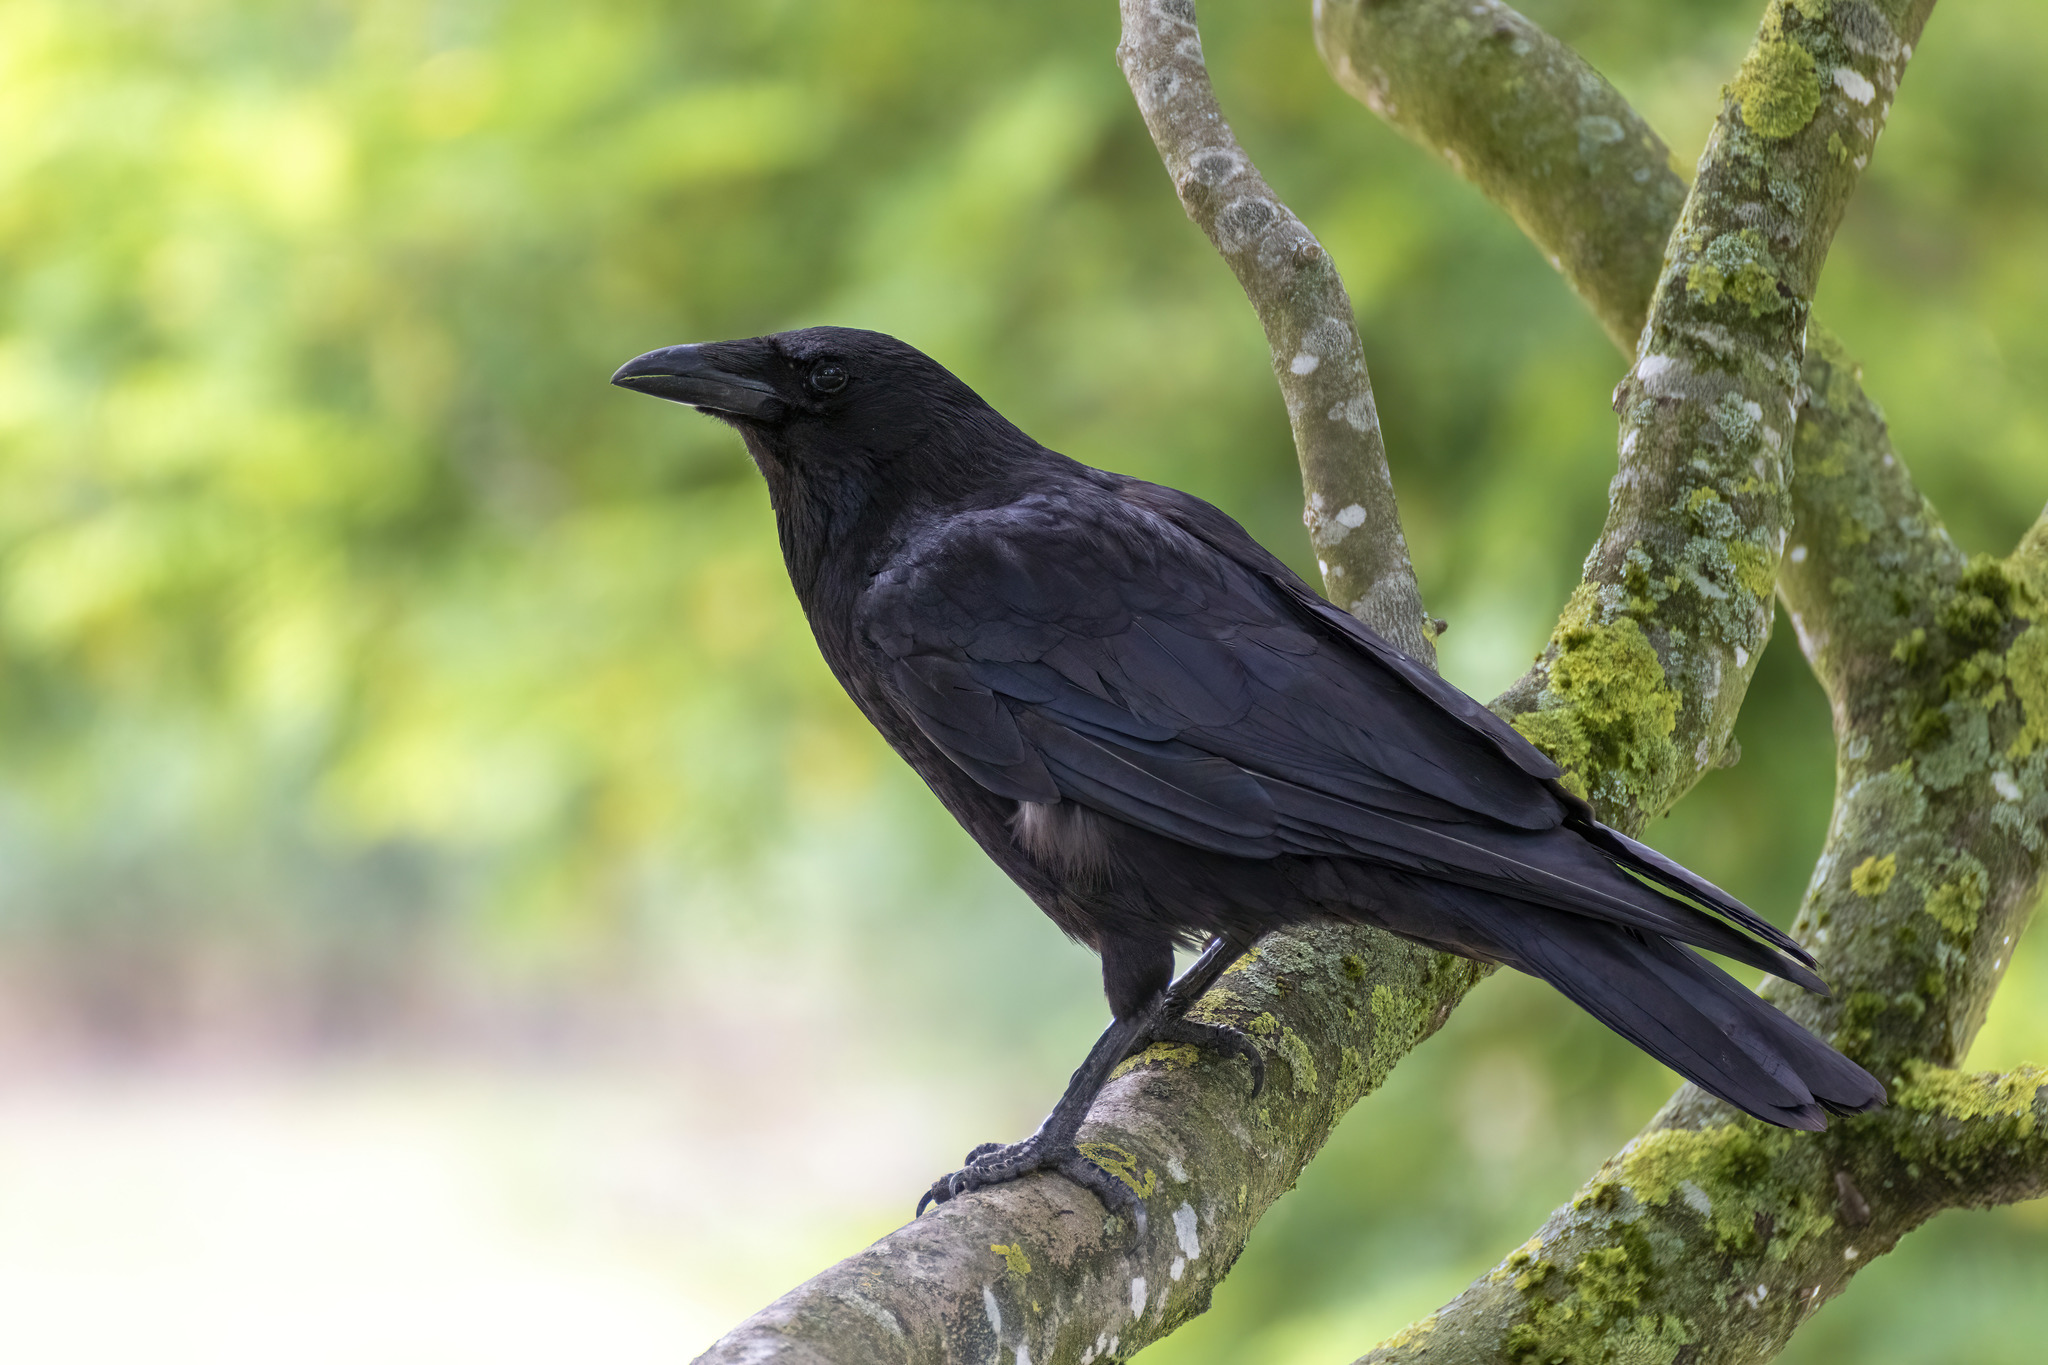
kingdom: Animalia
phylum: Chordata
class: Aves
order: Passeriformes
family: Corvidae
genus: Corvus
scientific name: Corvus corone
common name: Carrion crow
